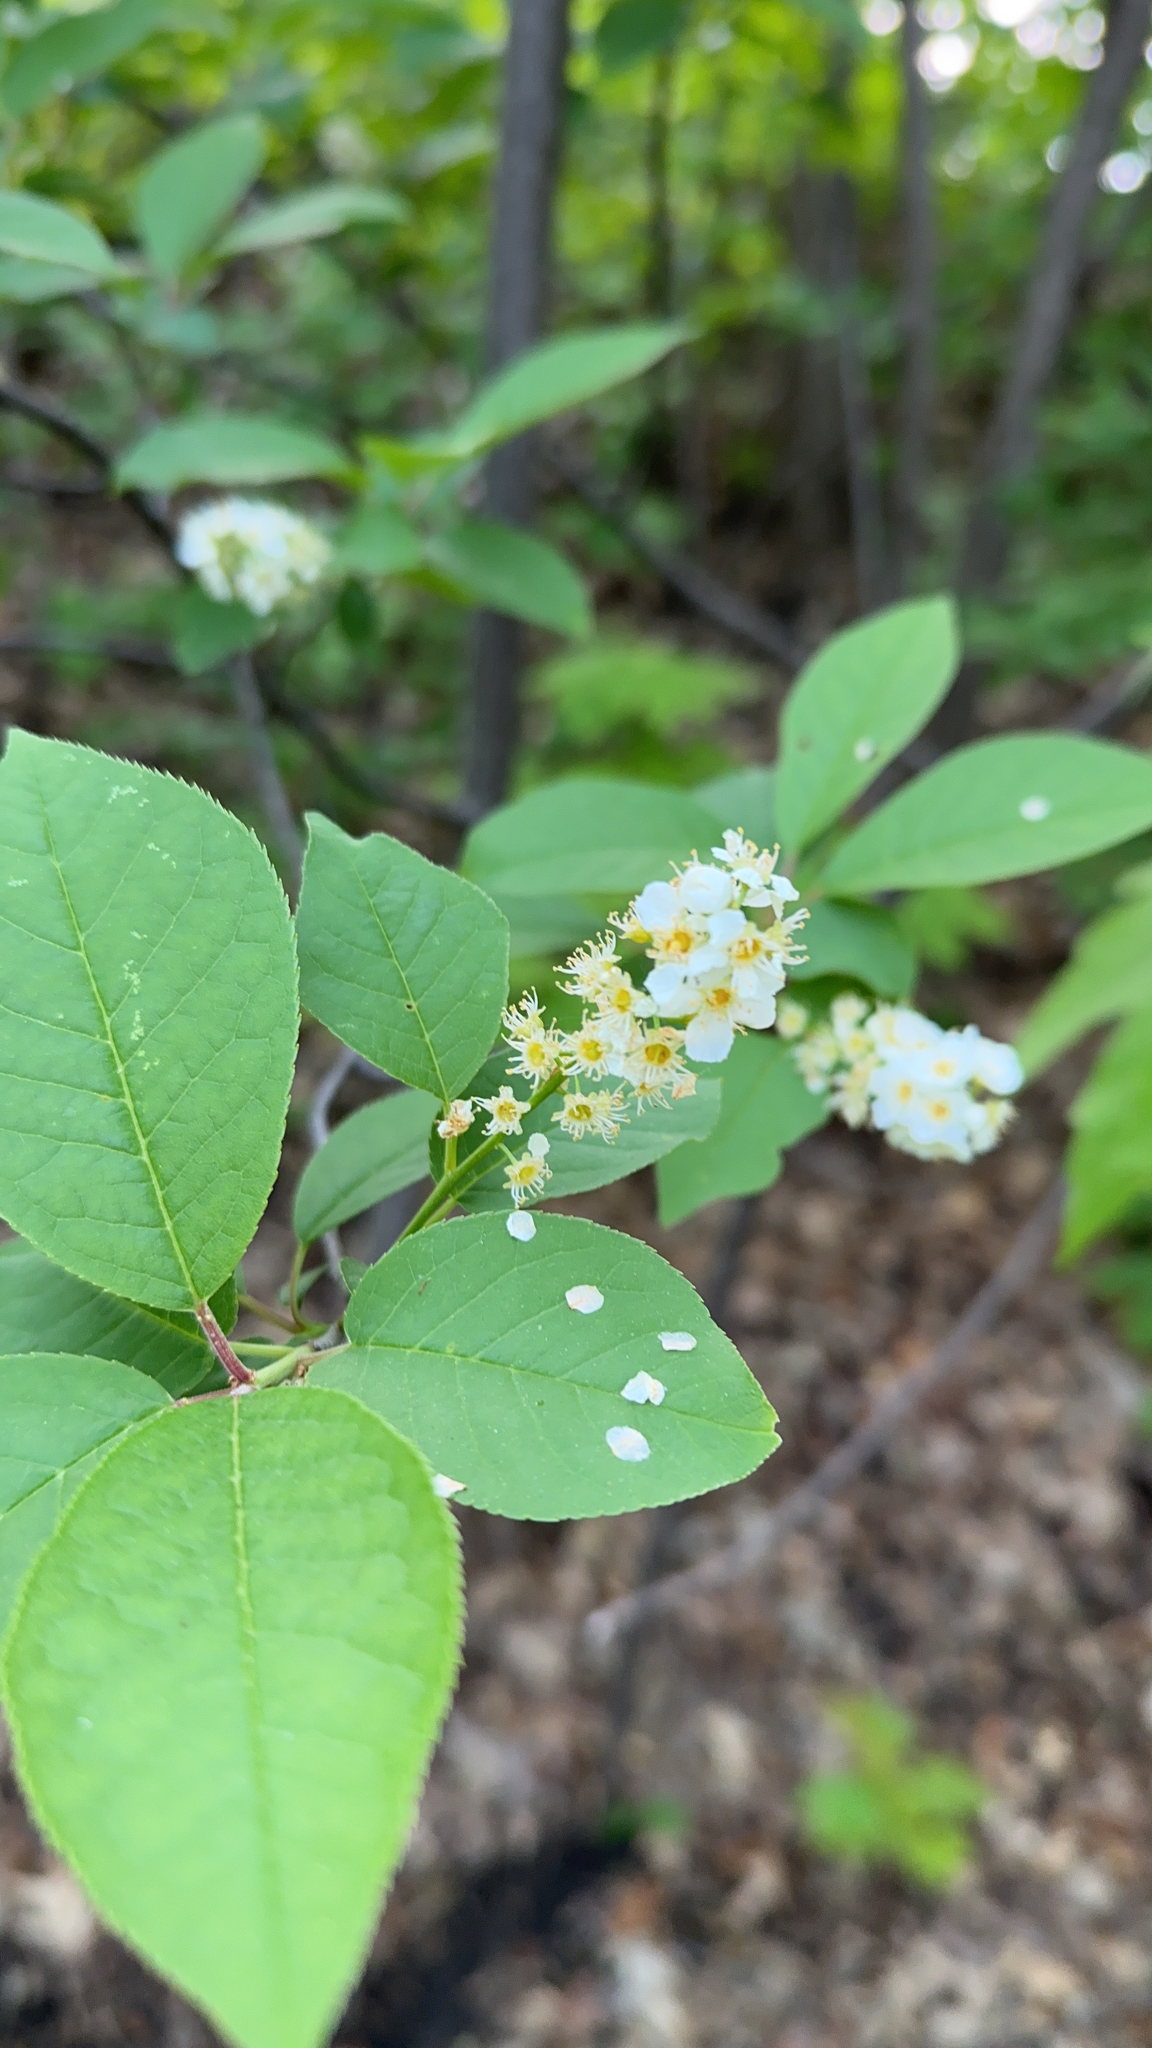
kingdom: Plantae
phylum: Tracheophyta
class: Magnoliopsida
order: Rosales
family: Rosaceae
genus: Prunus
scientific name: Prunus virginiana
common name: Chokecherry
